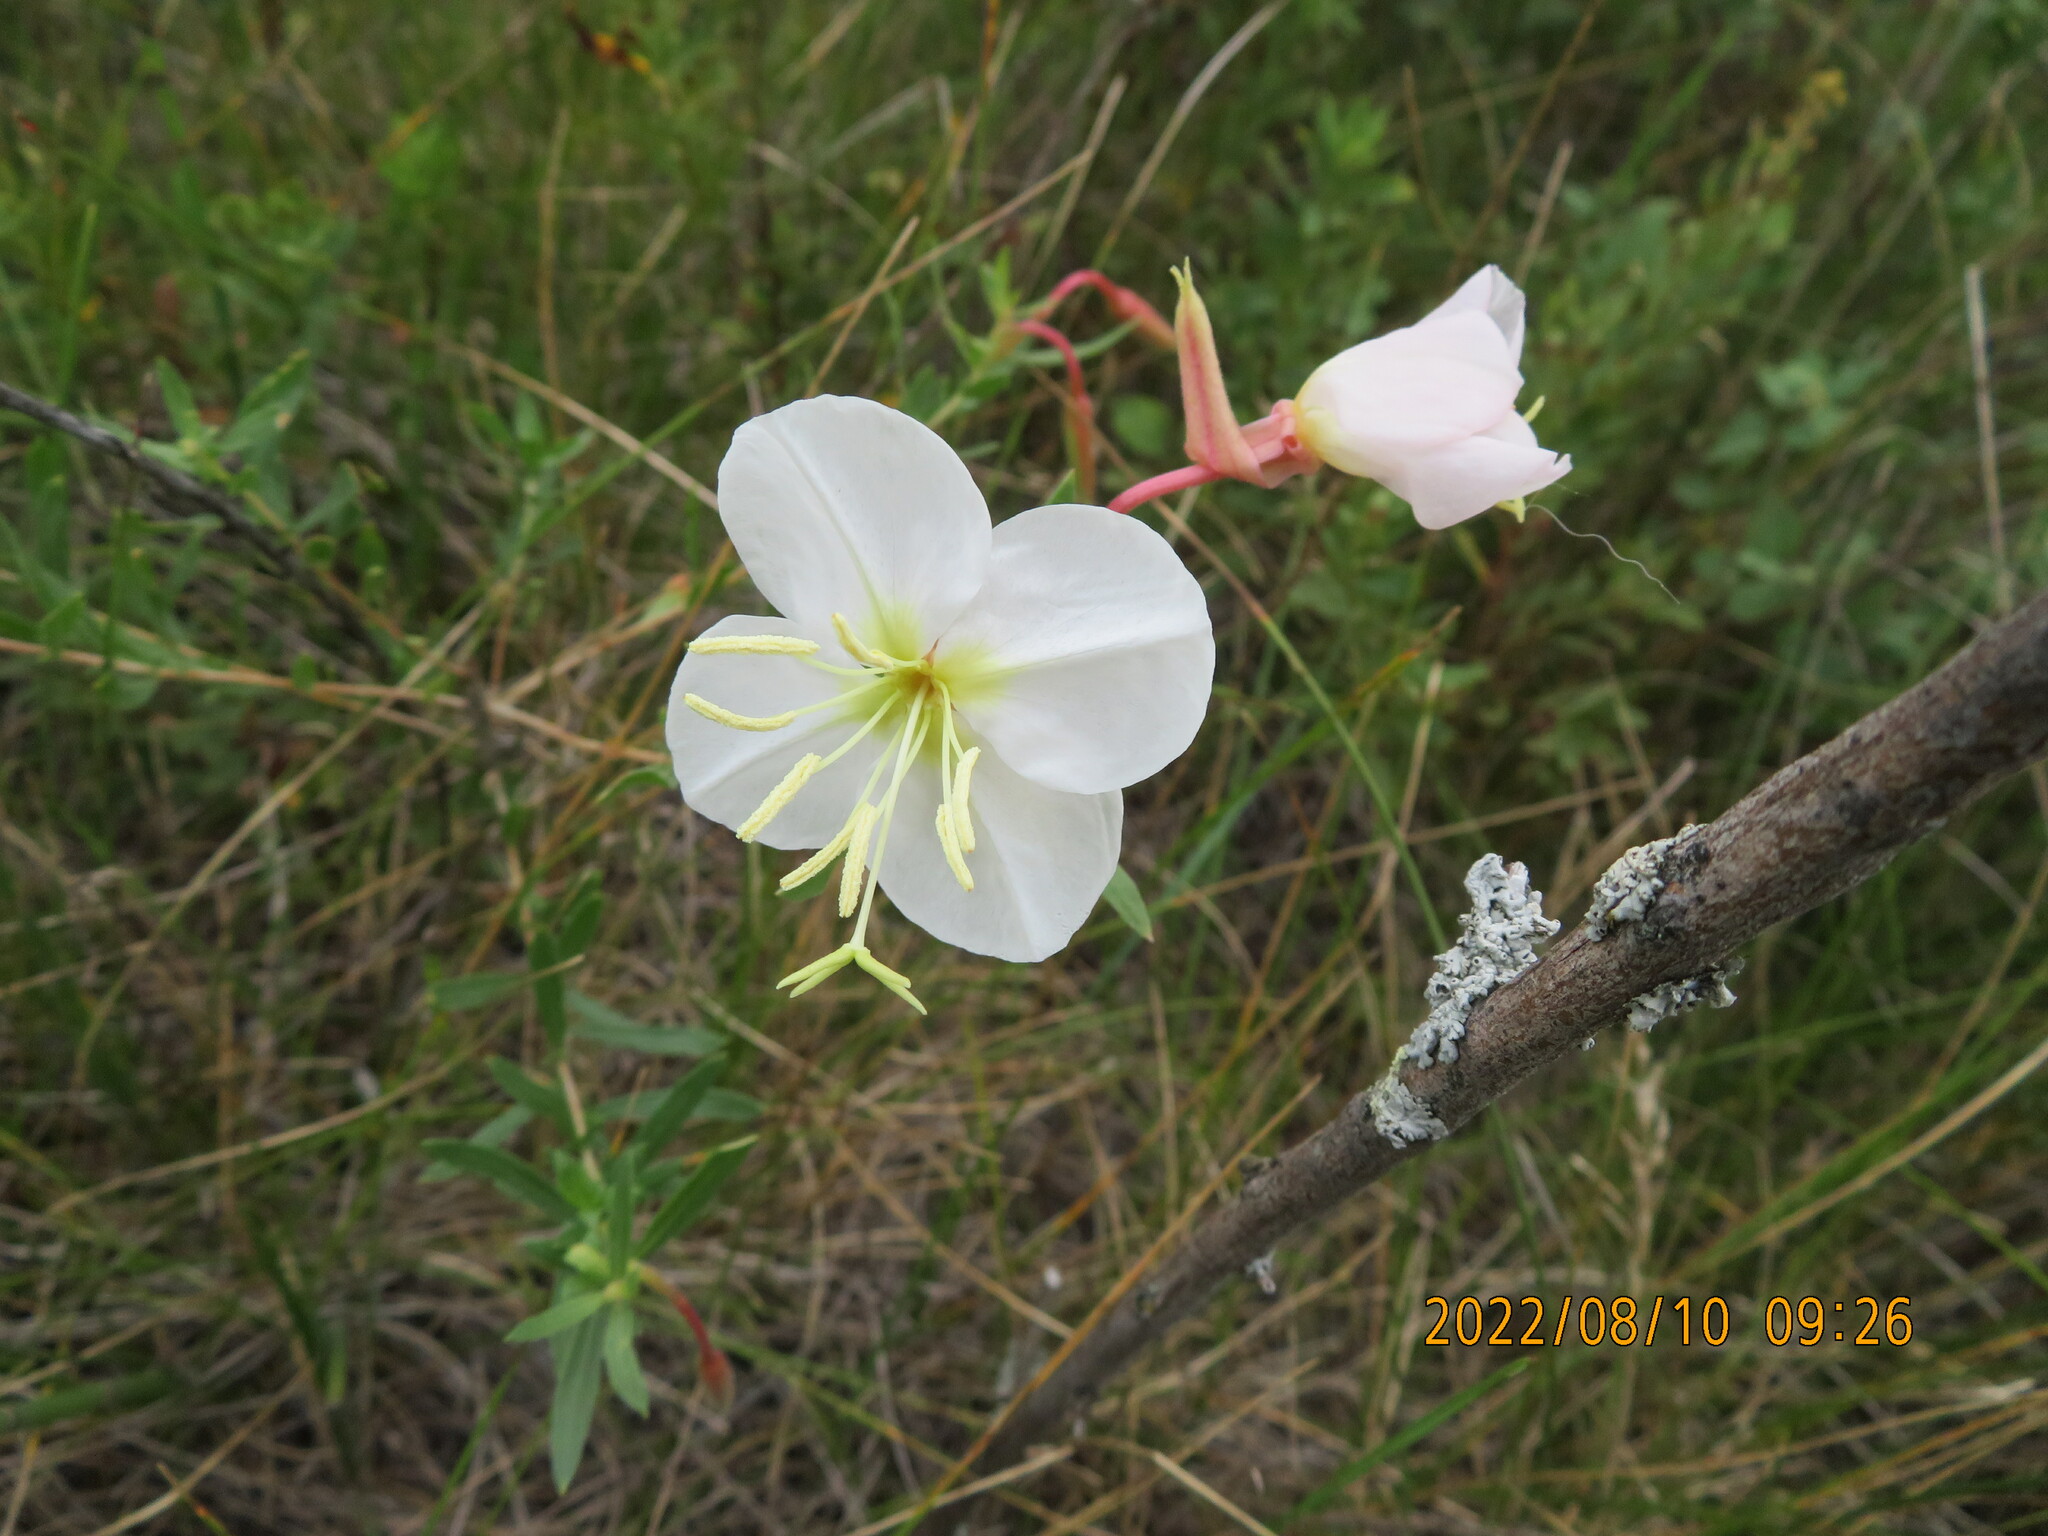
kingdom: Plantae
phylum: Tracheophyta
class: Magnoliopsida
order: Myrtales
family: Onagraceae
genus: Oenothera
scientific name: Oenothera nuttallii
